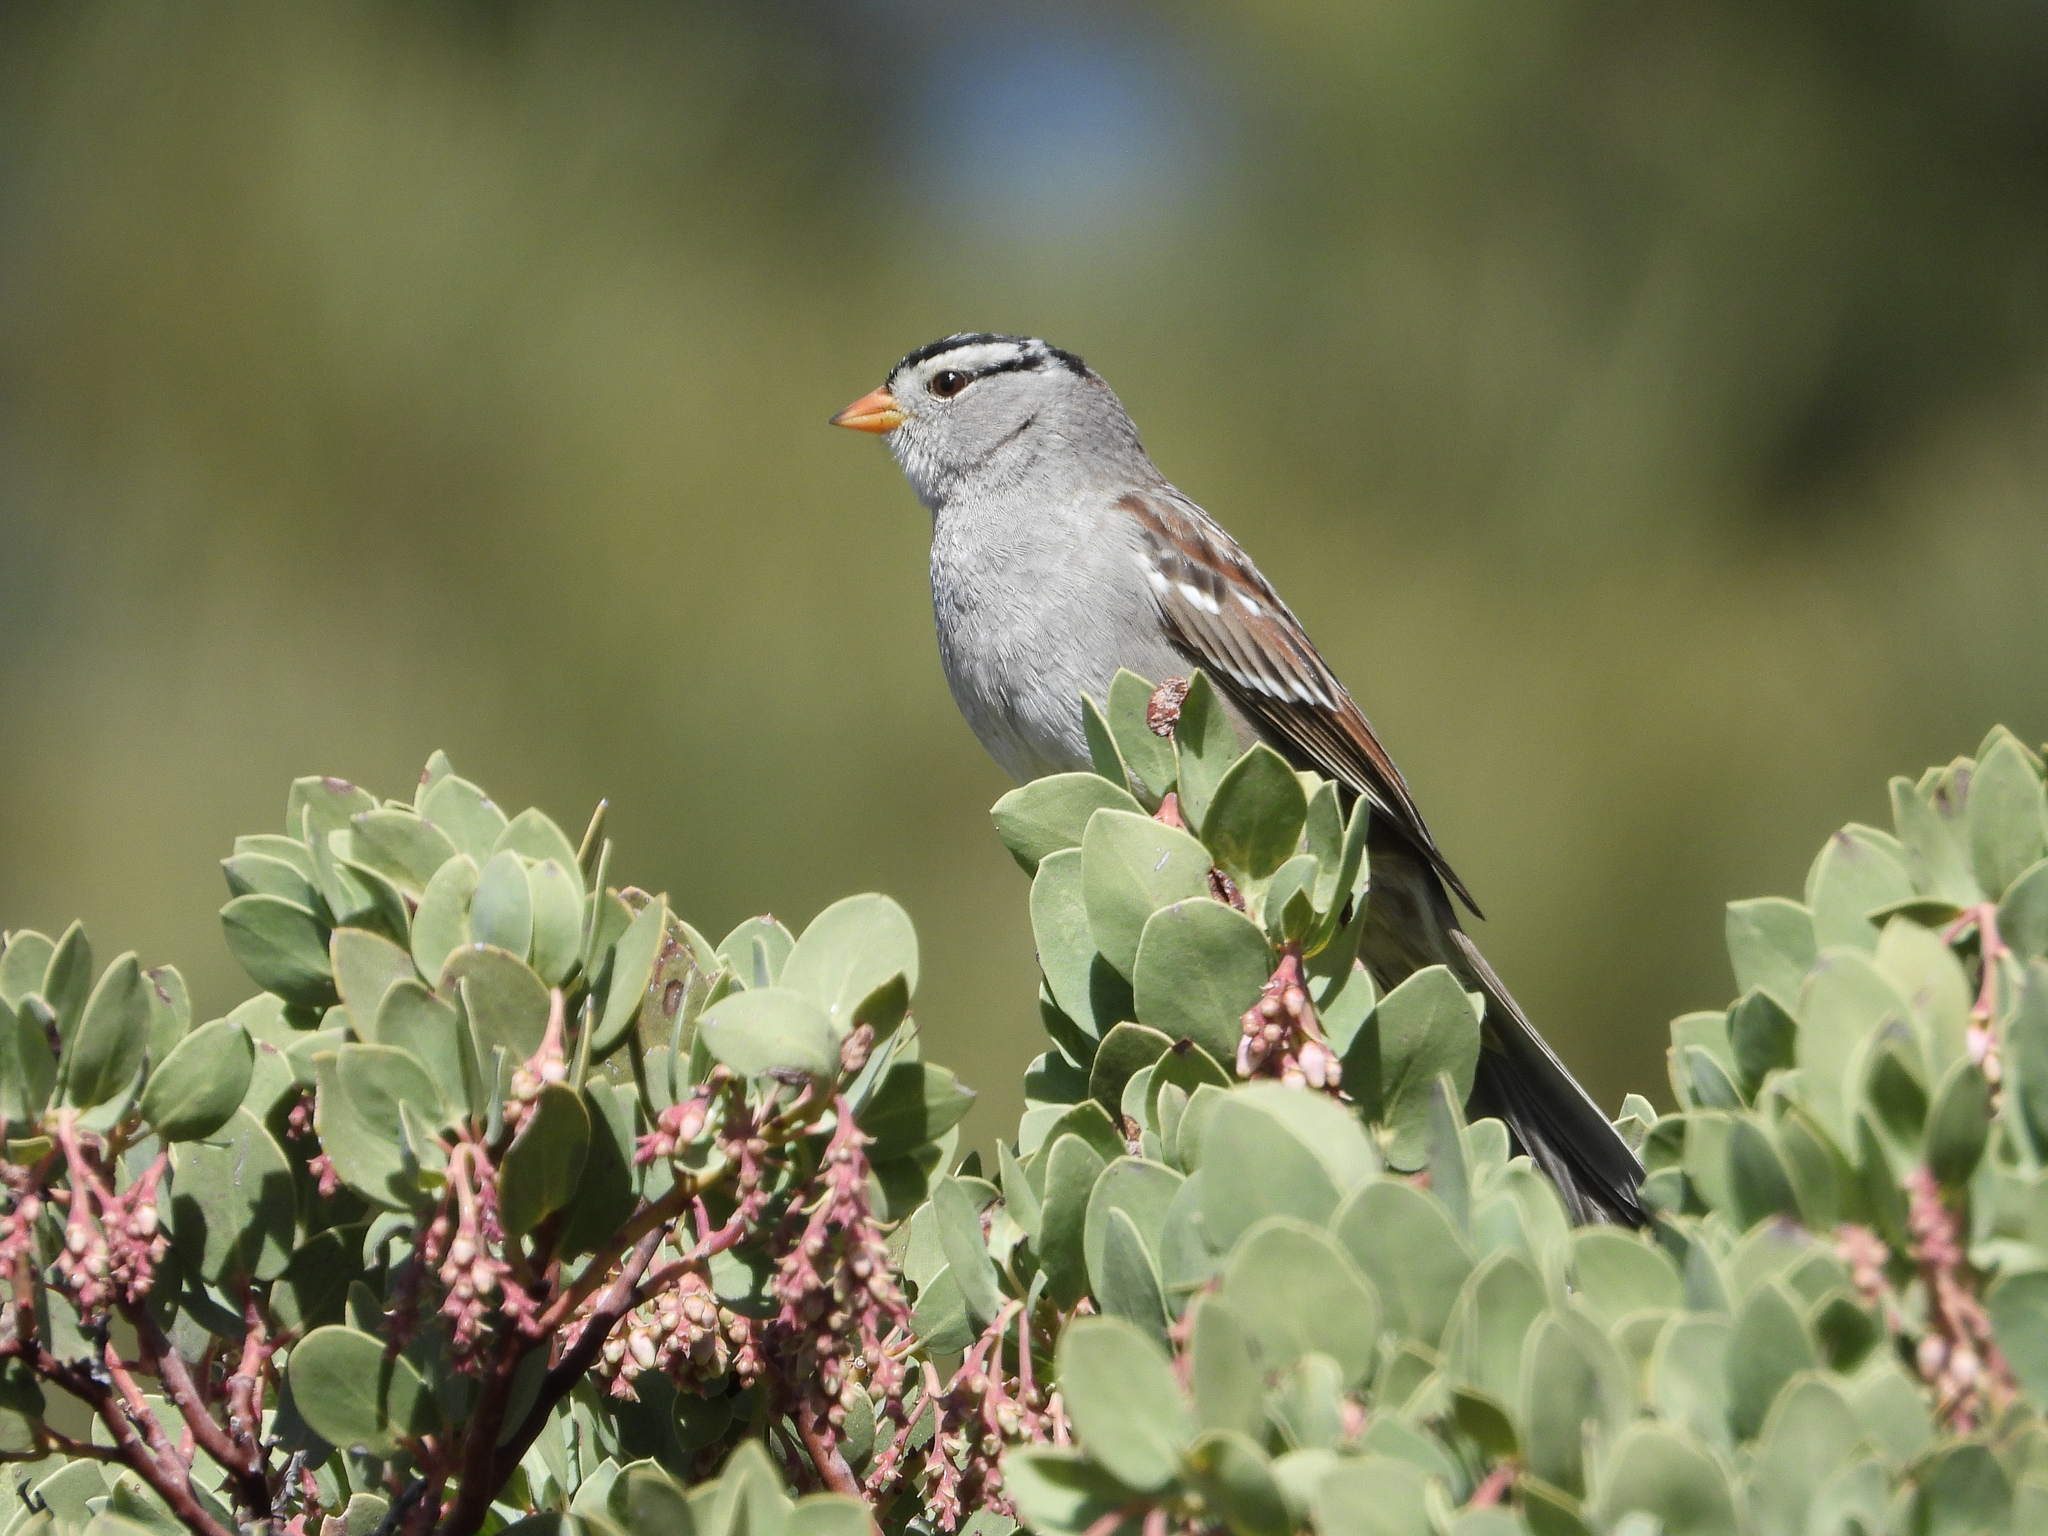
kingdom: Animalia
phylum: Chordata
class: Aves
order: Passeriformes
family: Passerellidae
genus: Zonotrichia
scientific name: Zonotrichia leucophrys
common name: White-crowned sparrow
